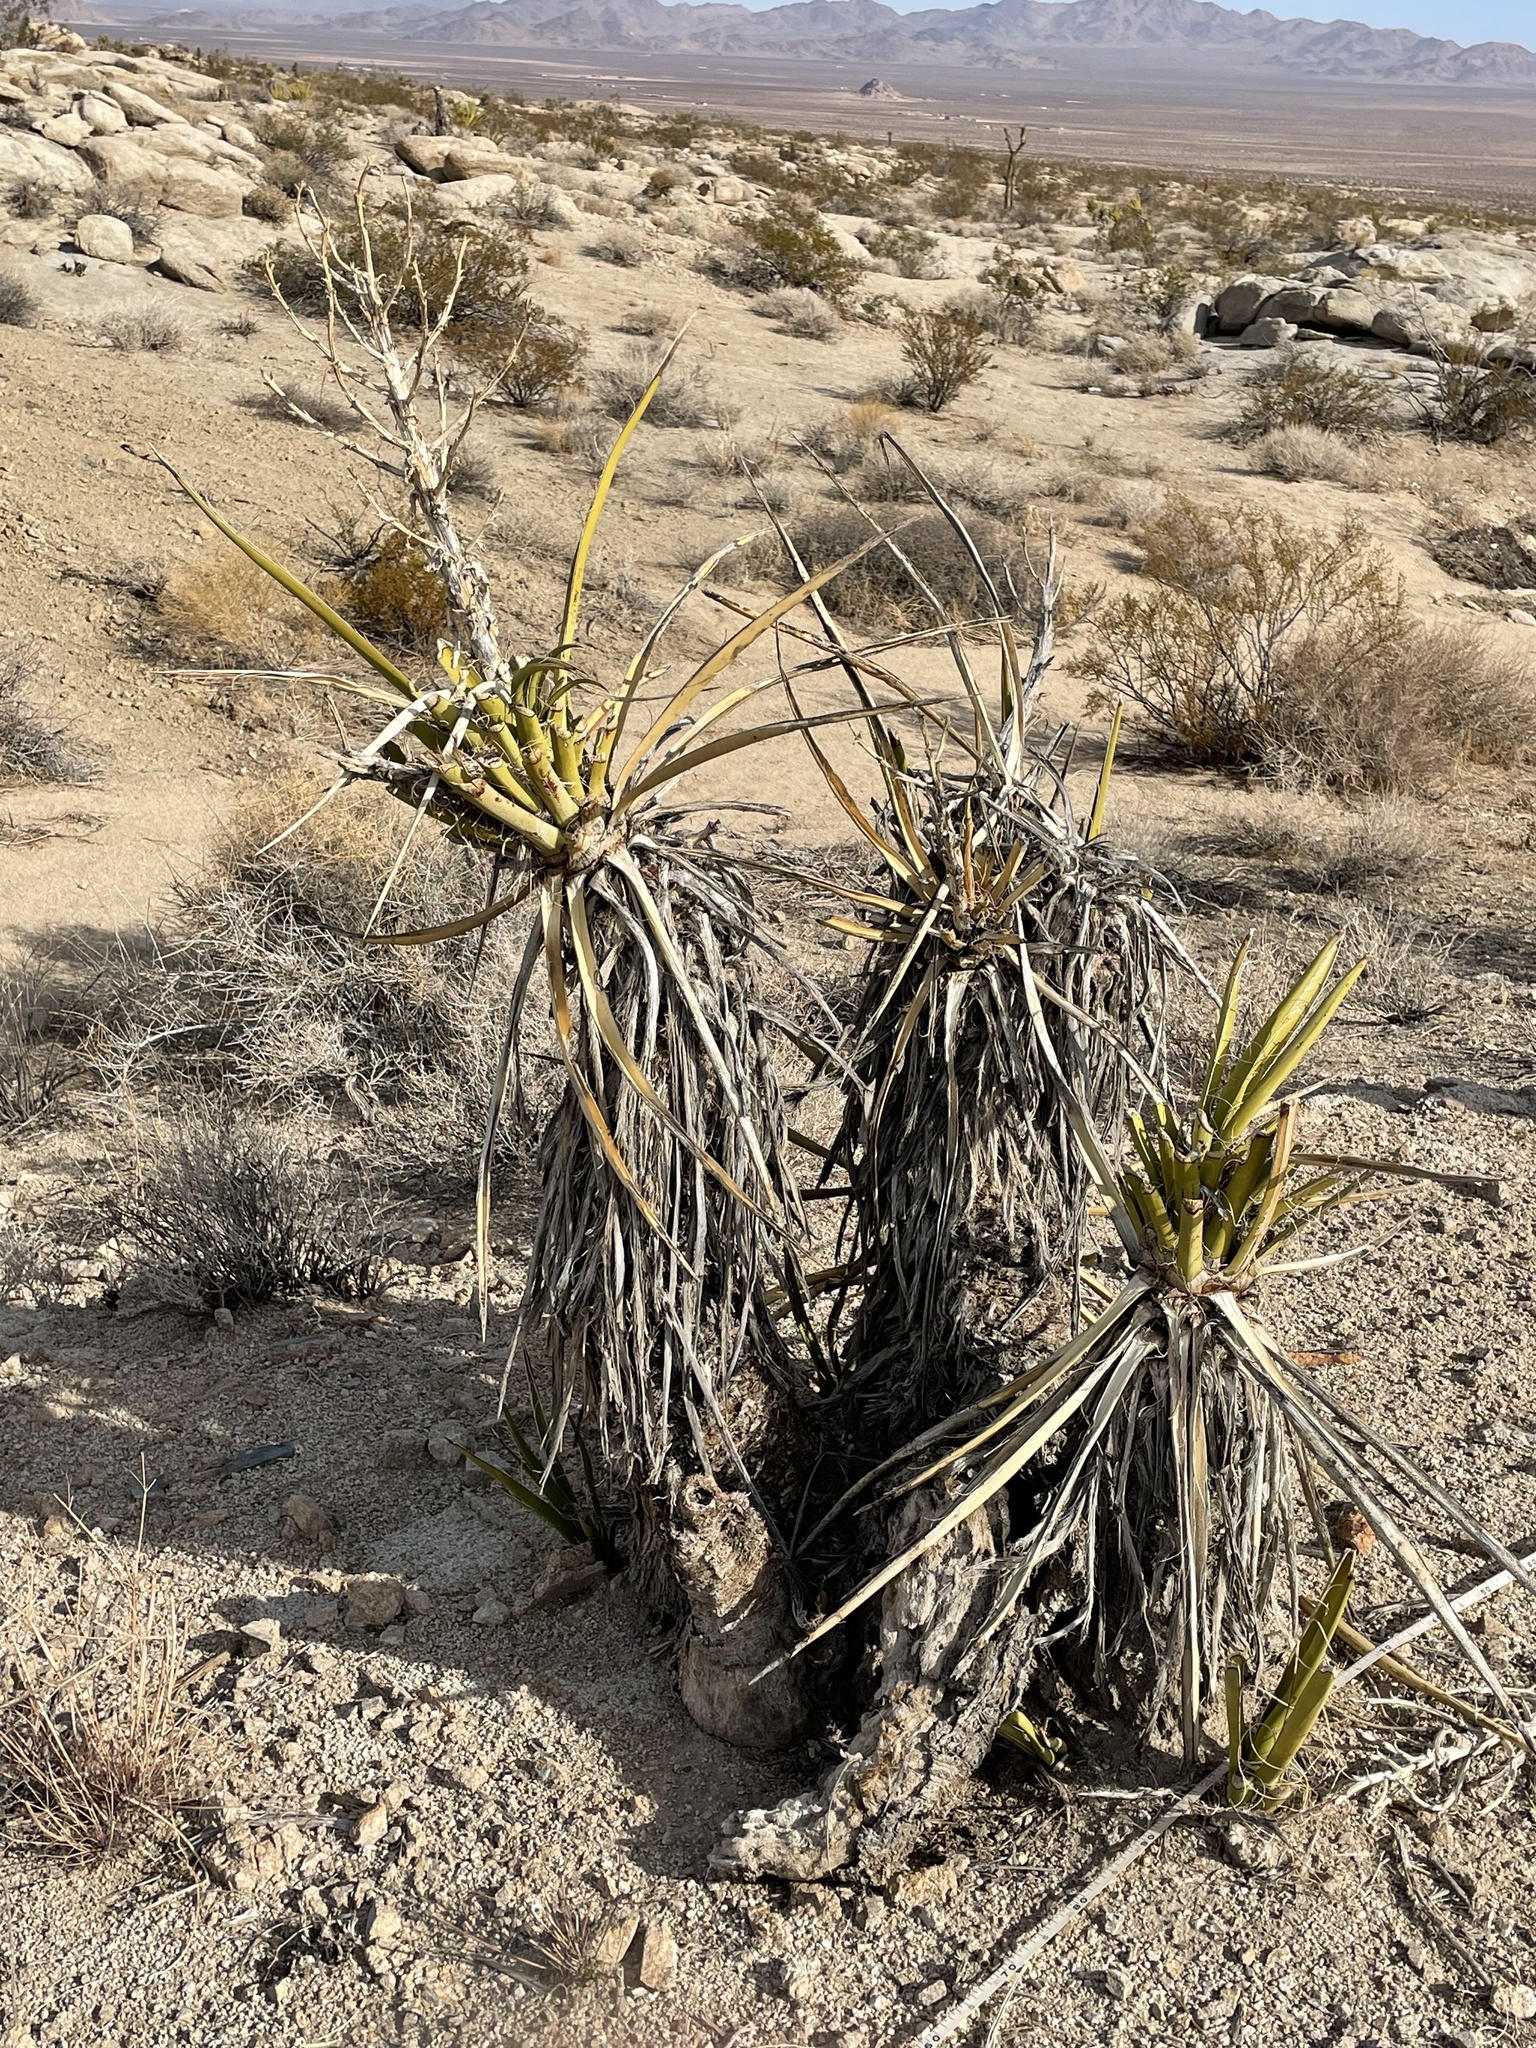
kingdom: Plantae
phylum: Tracheophyta
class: Liliopsida
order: Asparagales
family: Asparagaceae
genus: Yucca
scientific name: Yucca schidigera
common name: Mojave yucca
